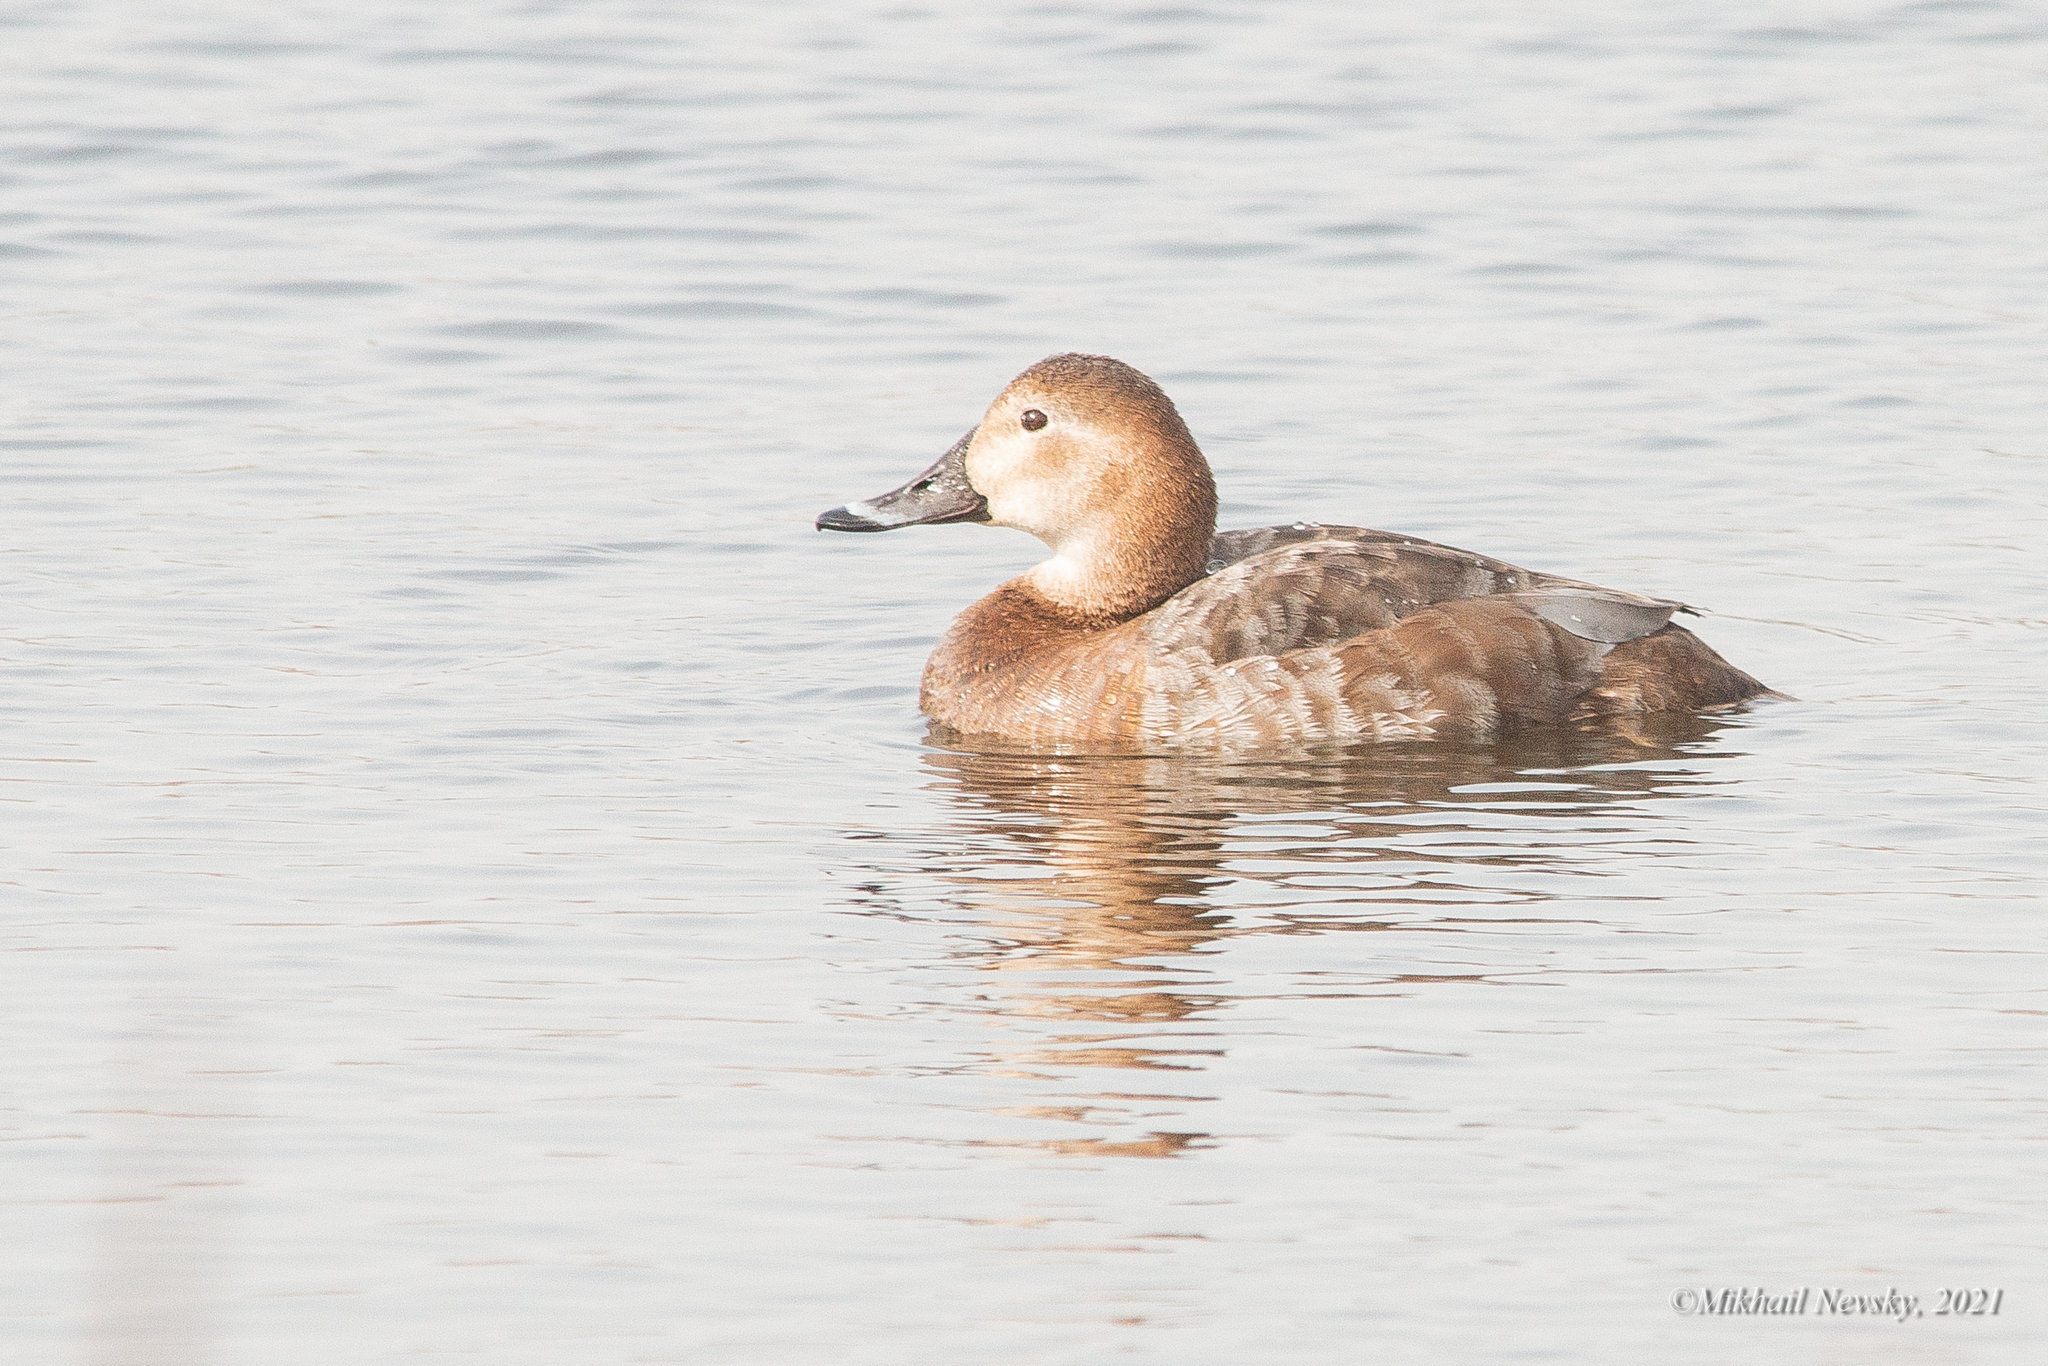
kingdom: Animalia
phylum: Chordata
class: Aves
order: Anseriformes
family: Anatidae
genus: Aythya
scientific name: Aythya ferina
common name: Common pochard
